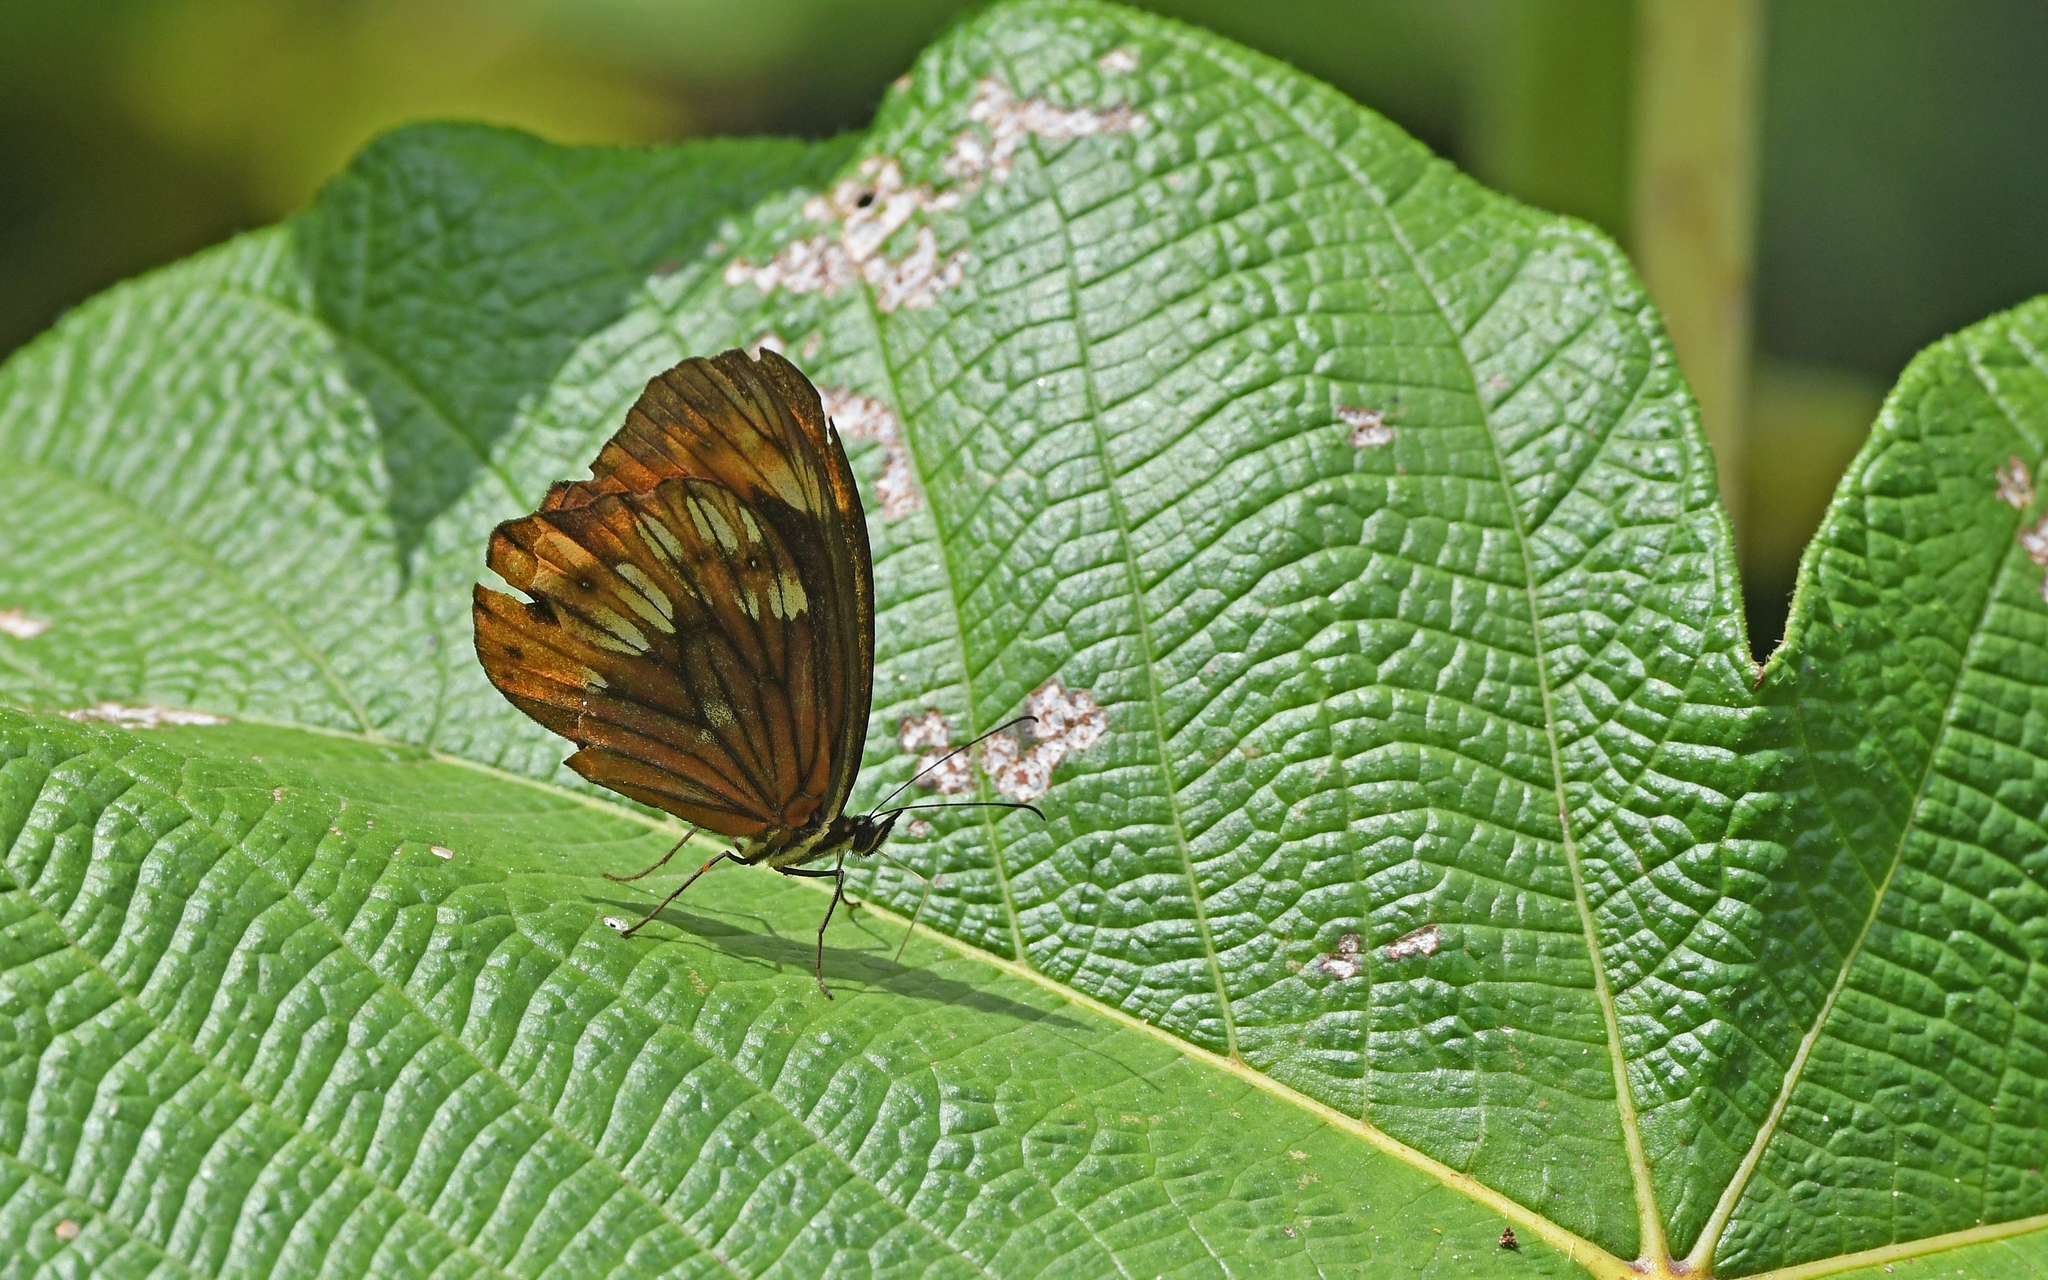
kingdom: Animalia
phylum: Arthropoda
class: Insecta
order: Lepidoptera
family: Nymphalidae
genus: Oxeoschistus
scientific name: Oxeoschistus pronax
